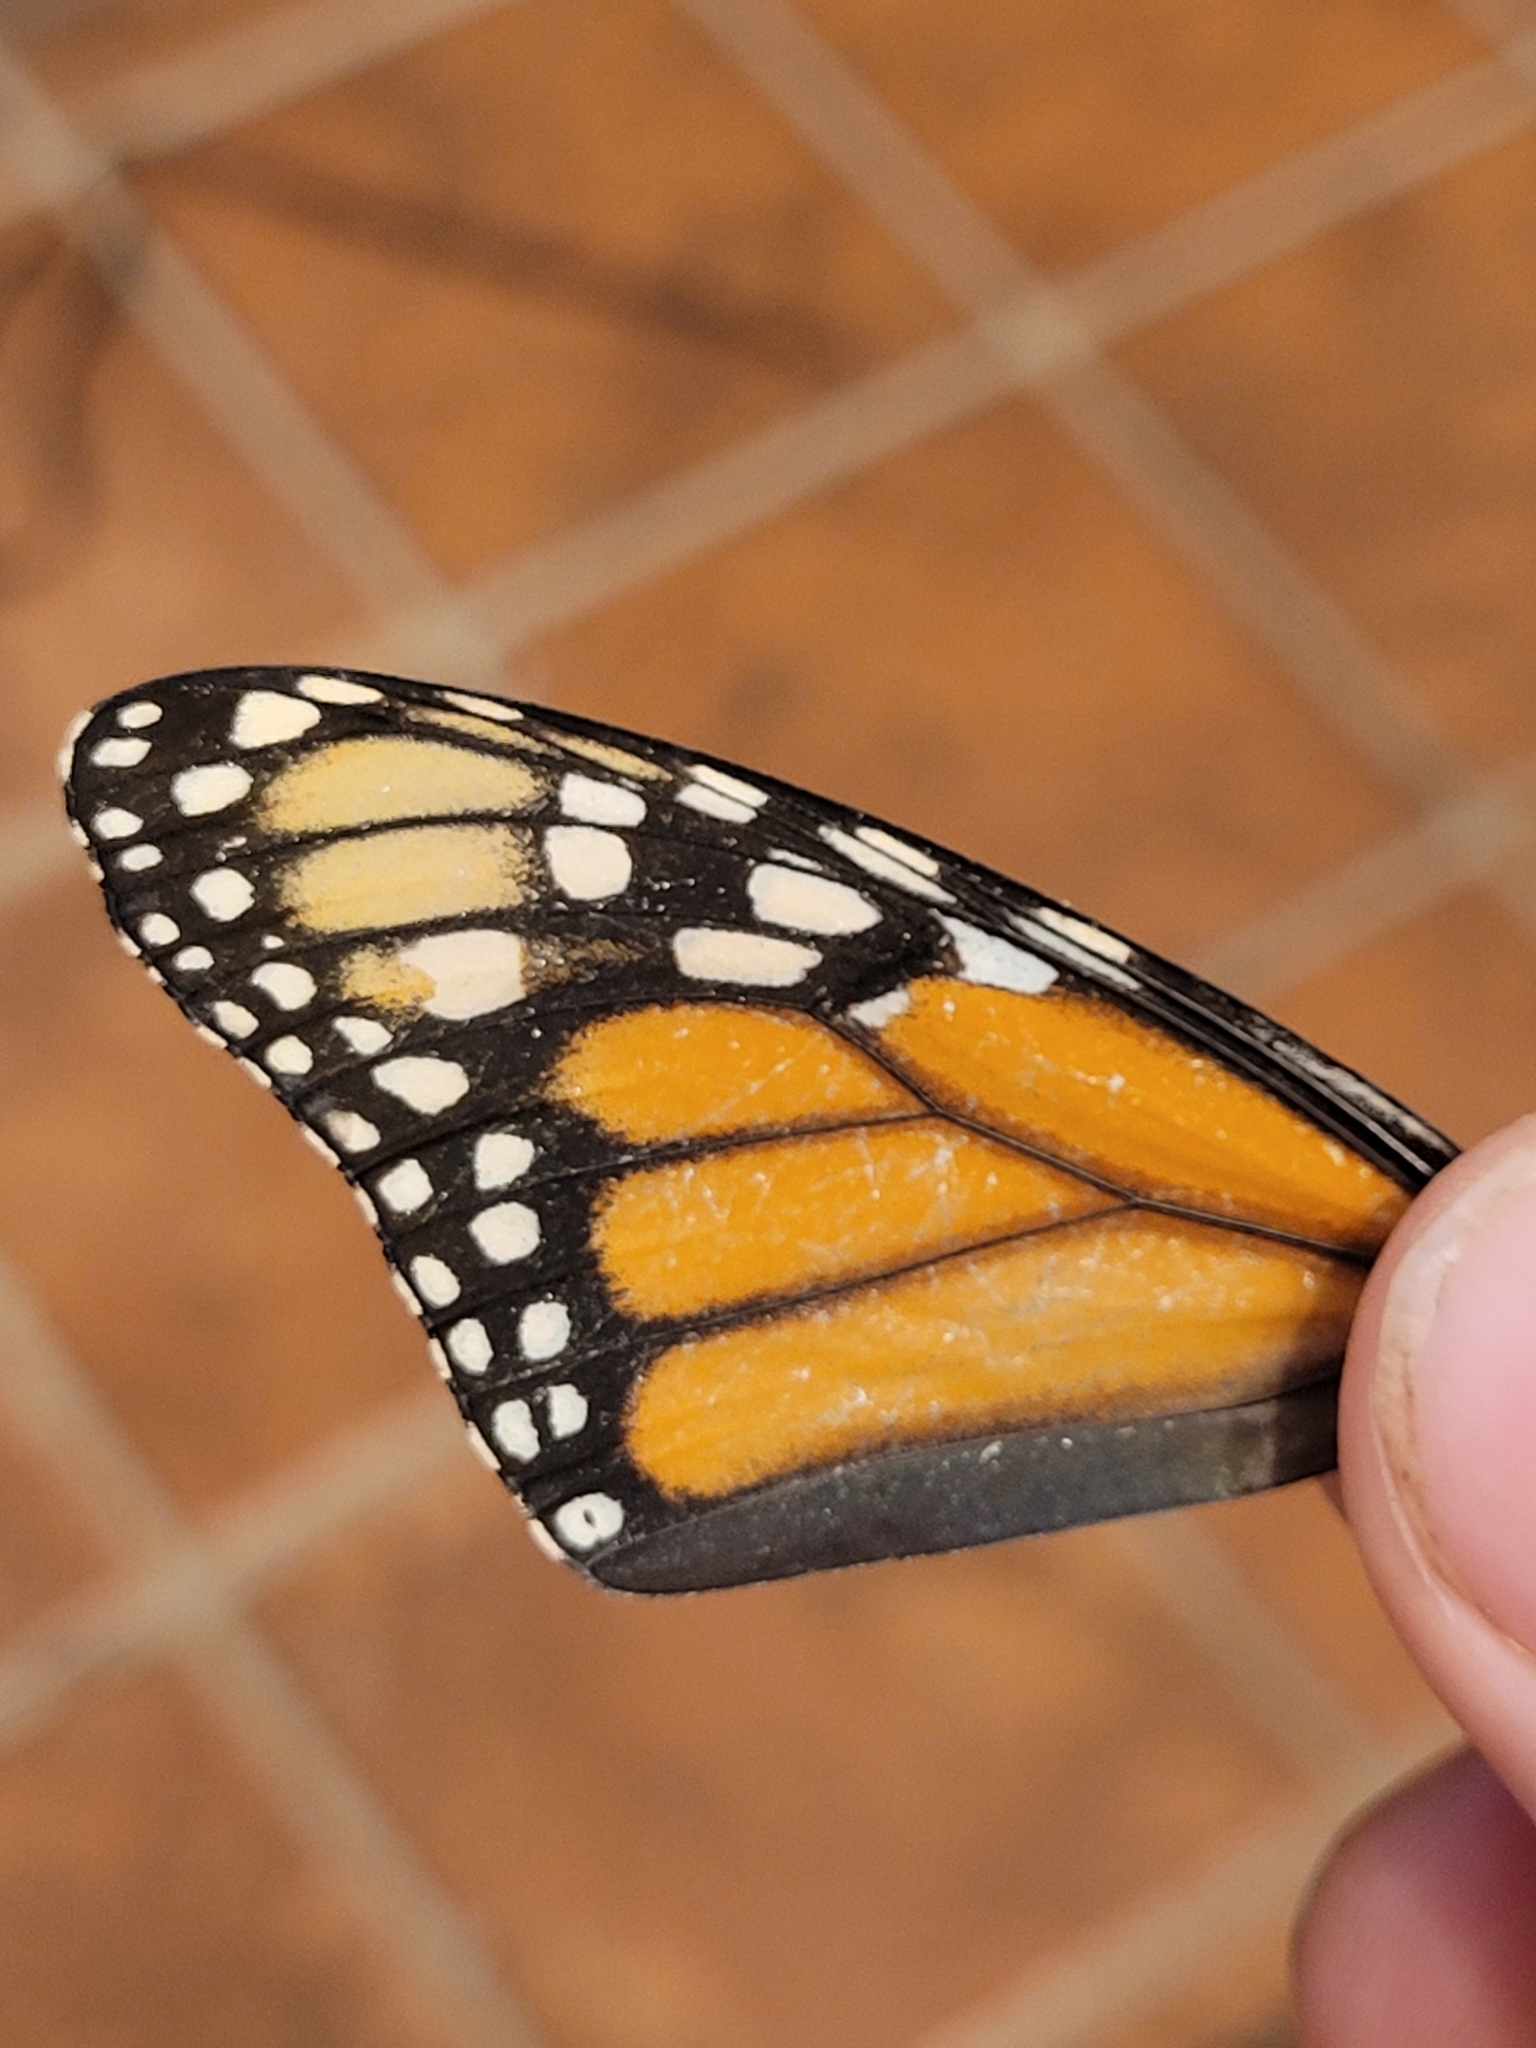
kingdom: Animalia
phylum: Arthropoda
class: Insecta
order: Lepidoptera
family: Nymphalidae
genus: Danaus
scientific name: Danaus plexippus
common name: Monarch
